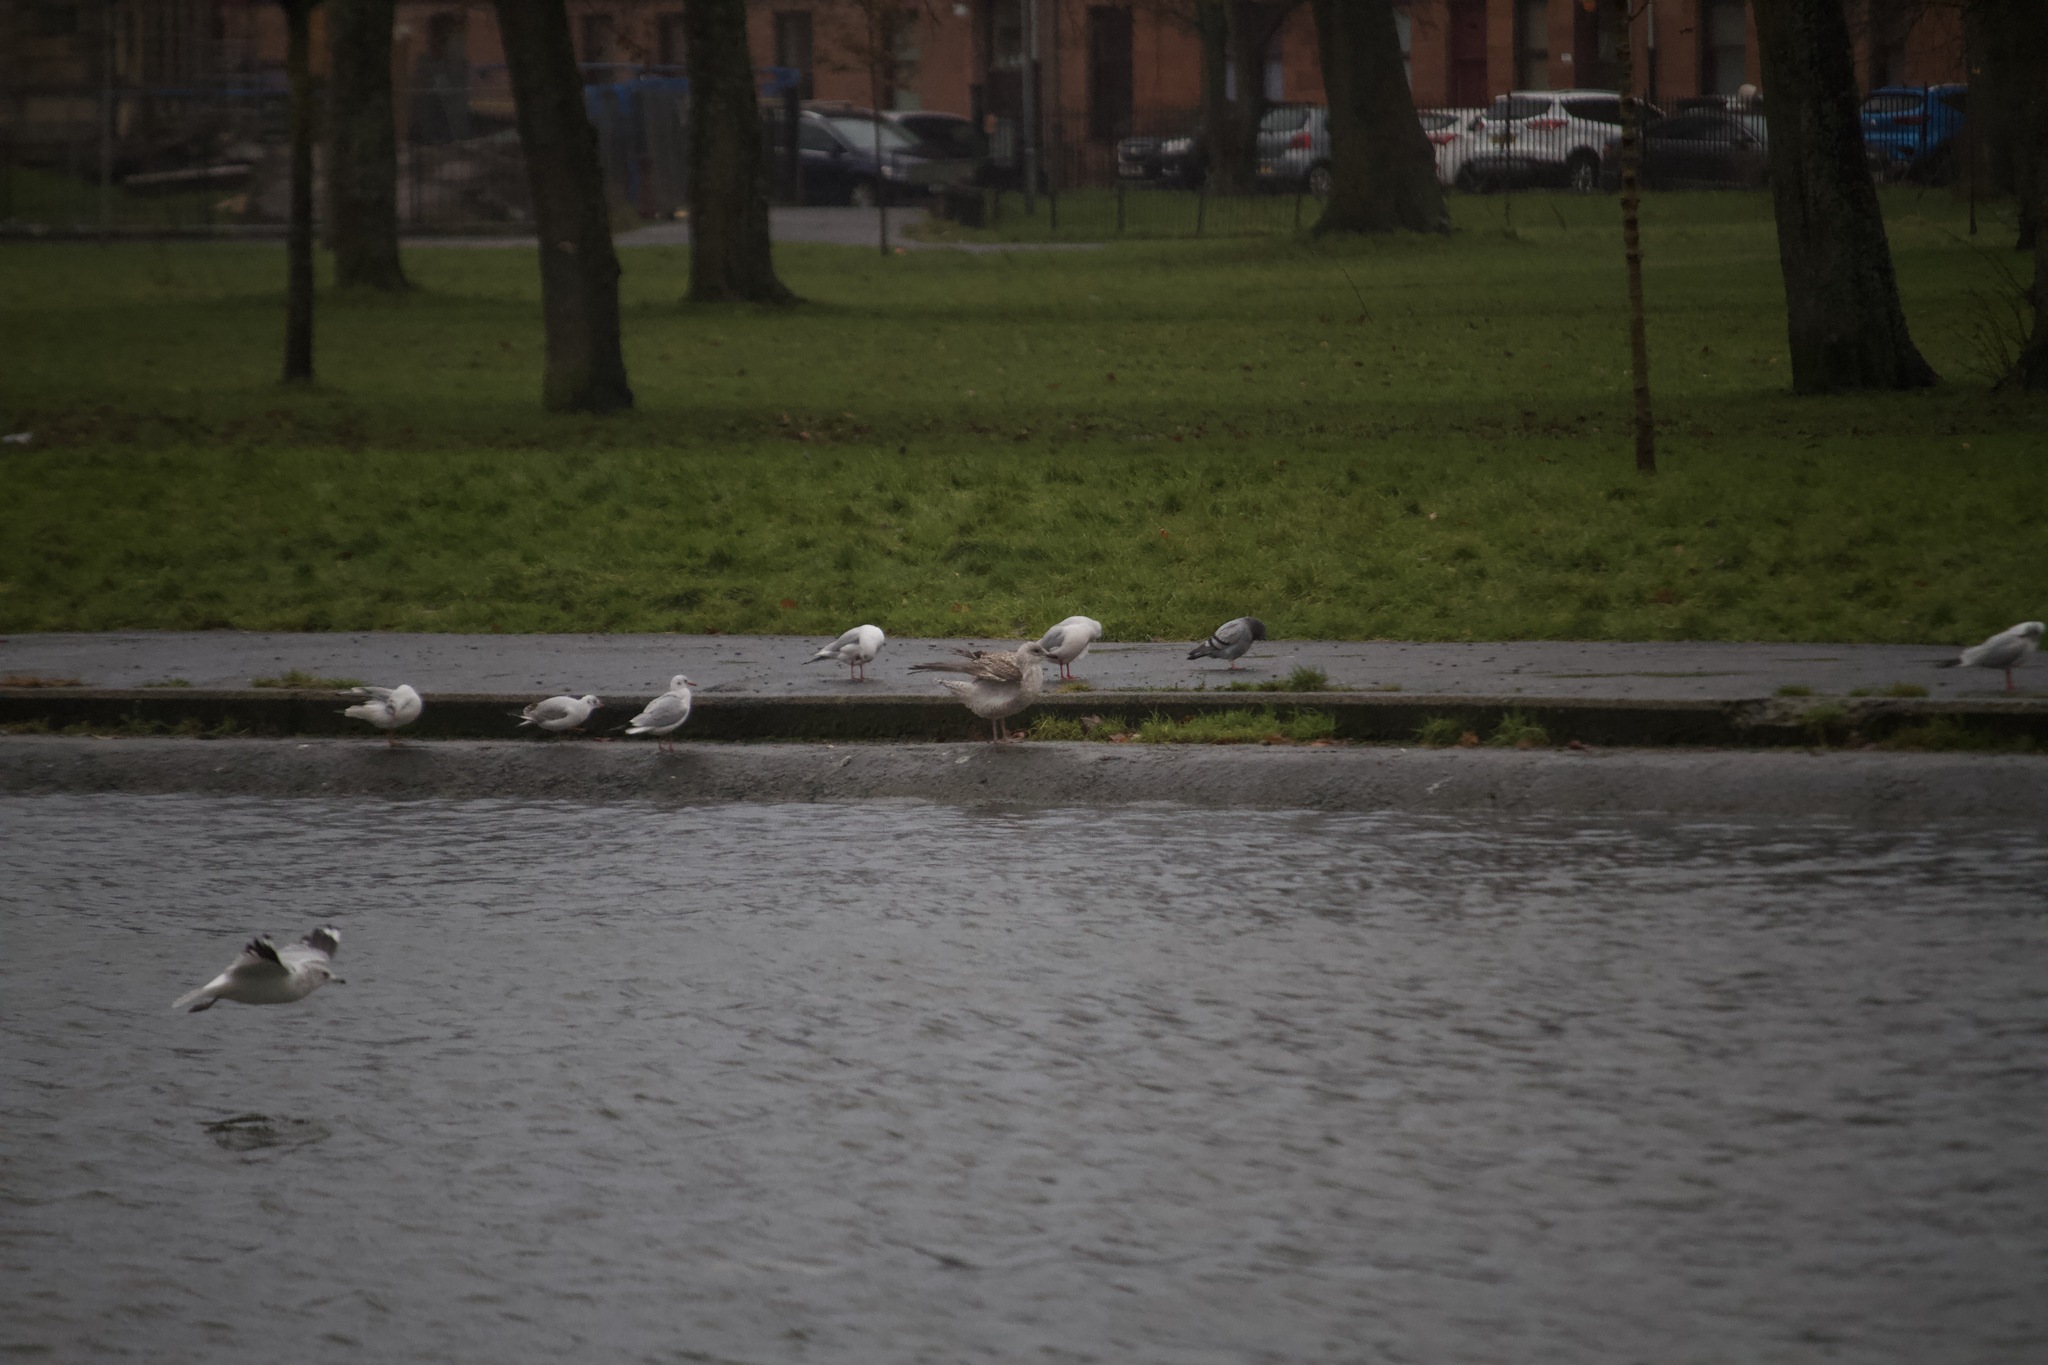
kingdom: Animalia
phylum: Chordata
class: Aves
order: Charadriiformes
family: Laridae
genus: Larus
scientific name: Larus argentatus
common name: Herring gull
